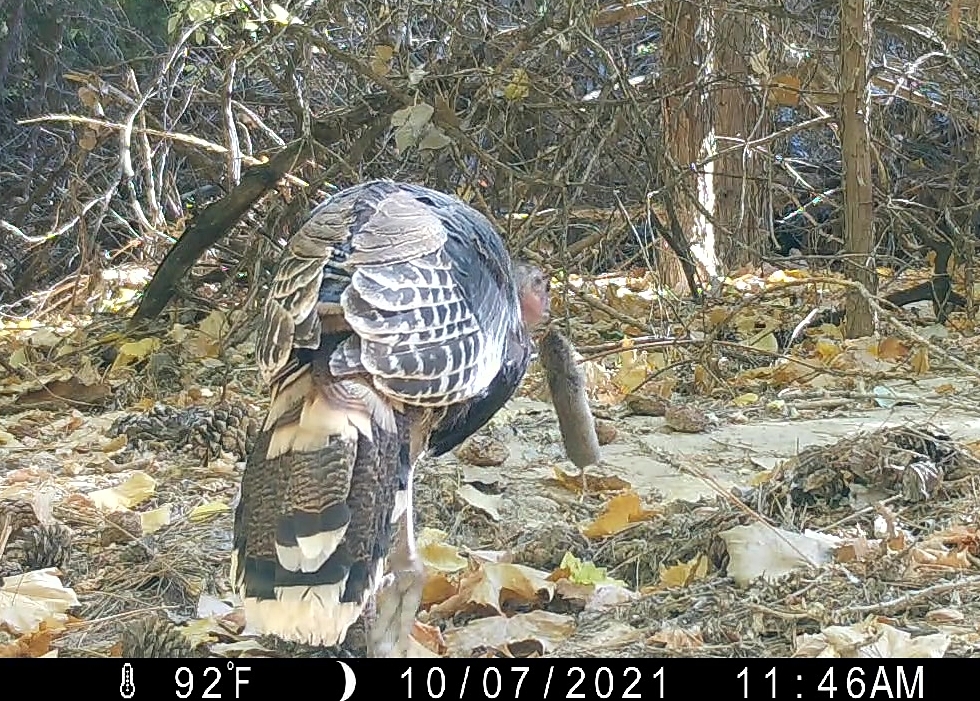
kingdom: Animalia
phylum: Chordata
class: Aves
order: Galliformes
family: Phasianidae
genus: Meleagris
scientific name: Meleagris gallopavo
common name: Wild turkey
